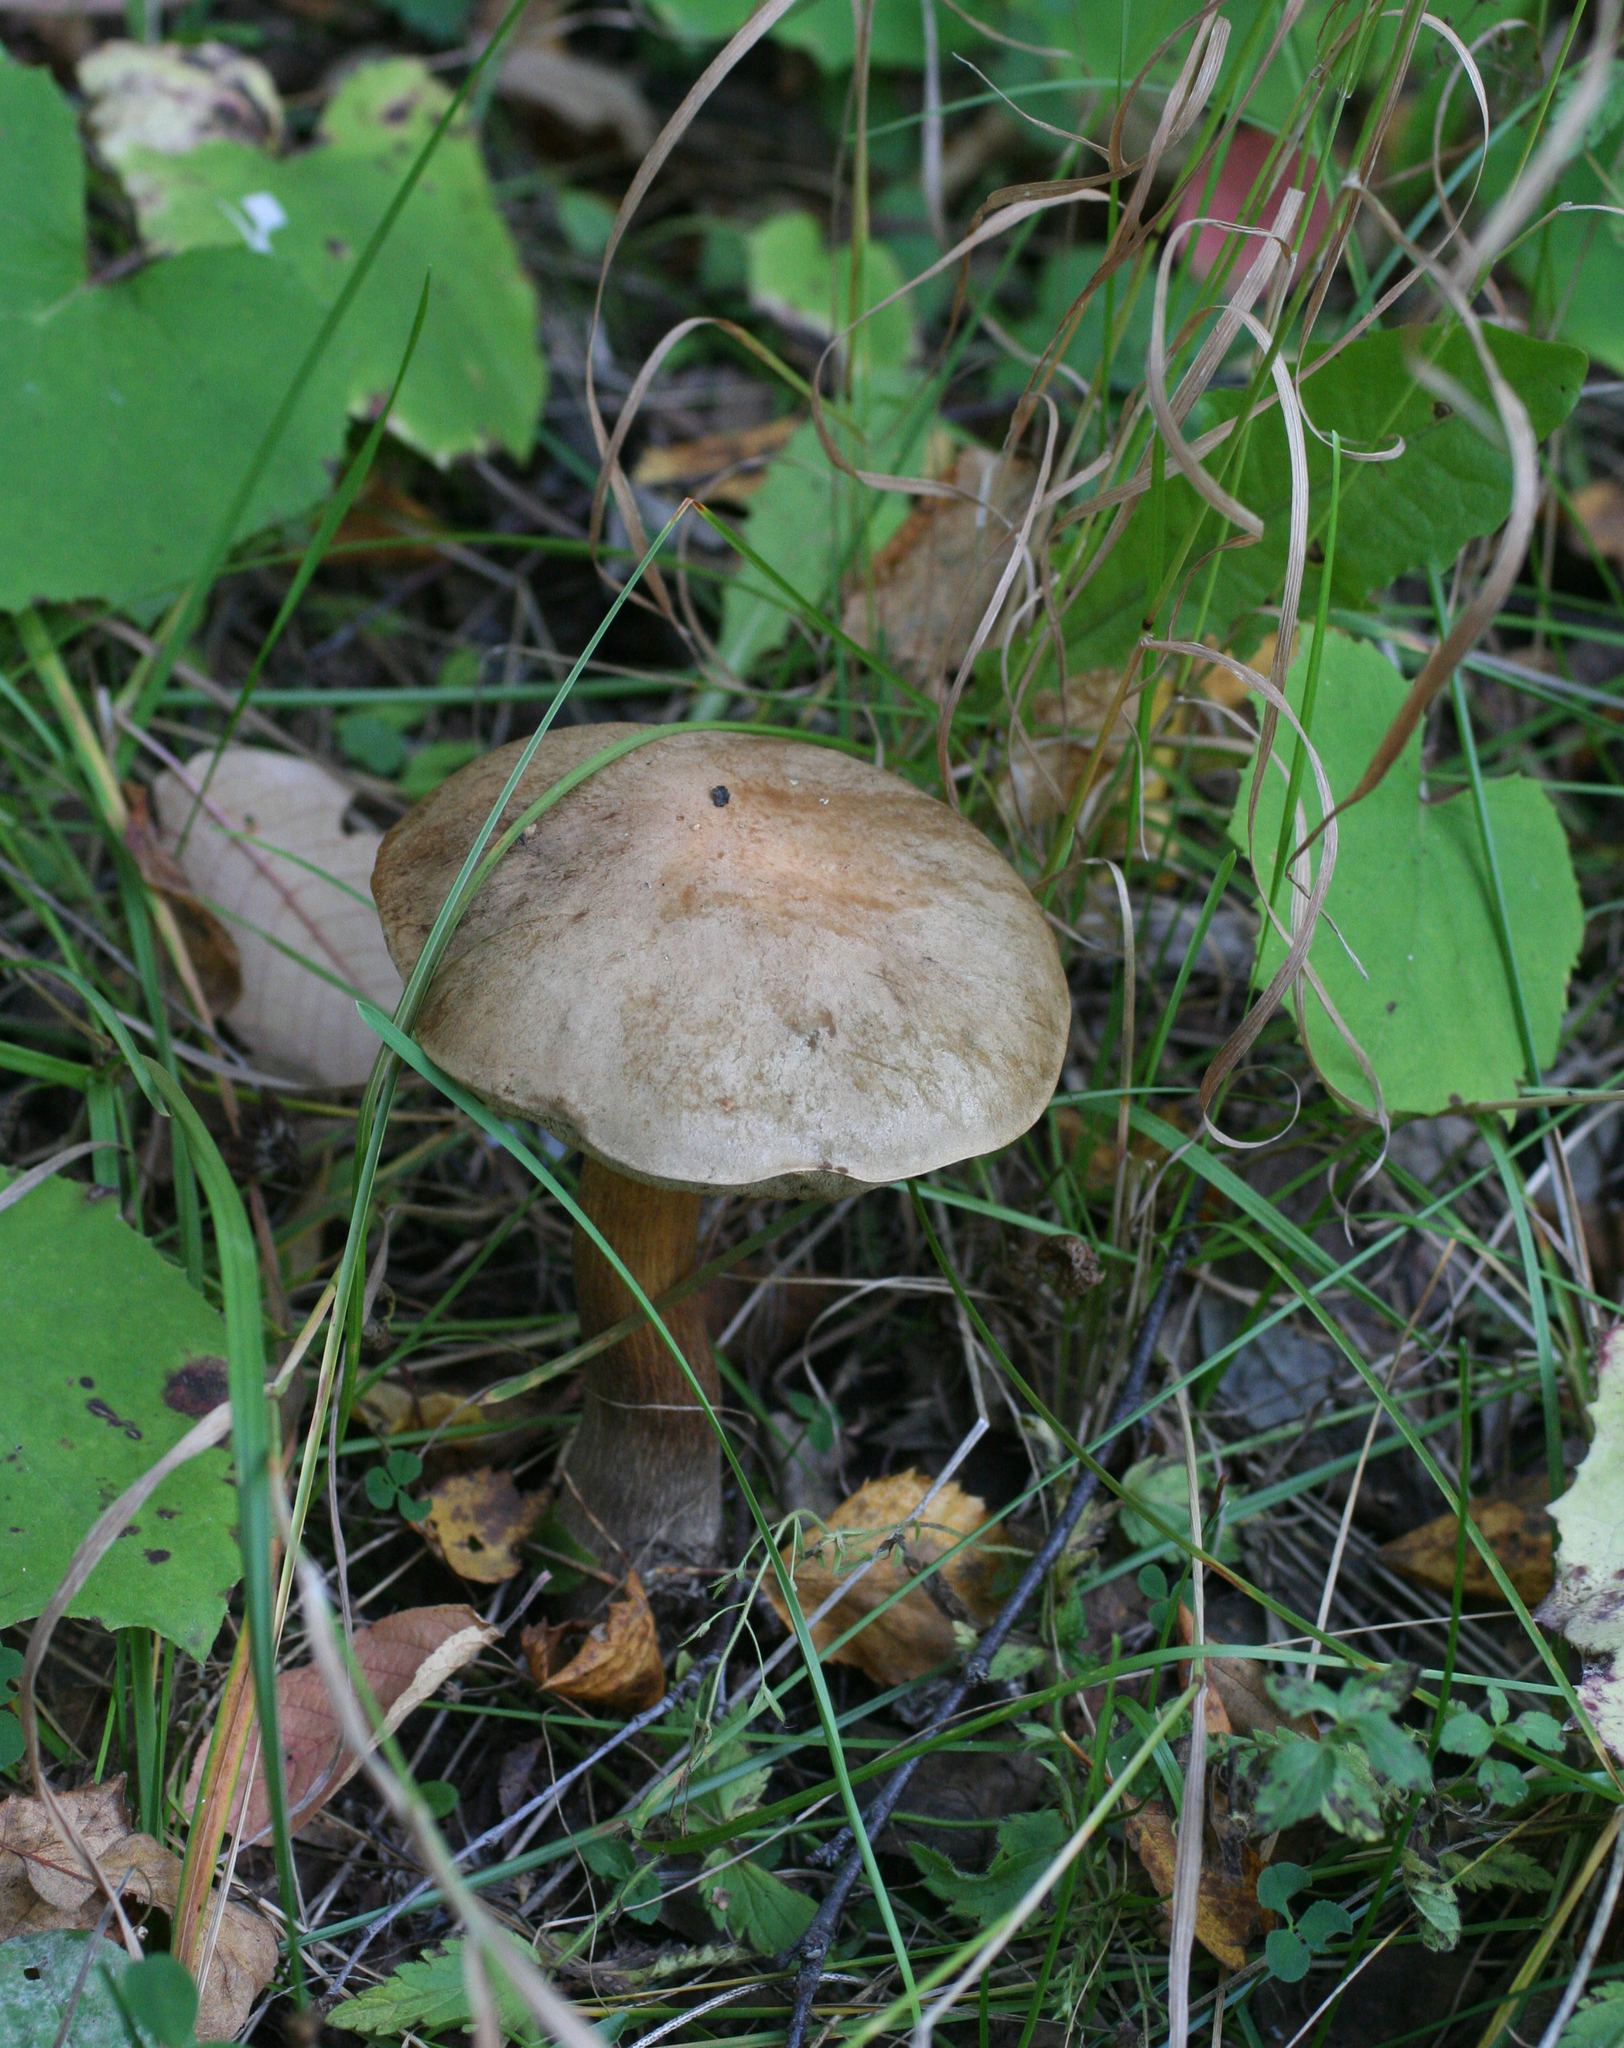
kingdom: Fungi
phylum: Basidiomycota
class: Agaricomycetes
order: Boletales
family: Boletaceae
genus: Leccinum
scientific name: Leccinum scabrum
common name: Blushing bolete
